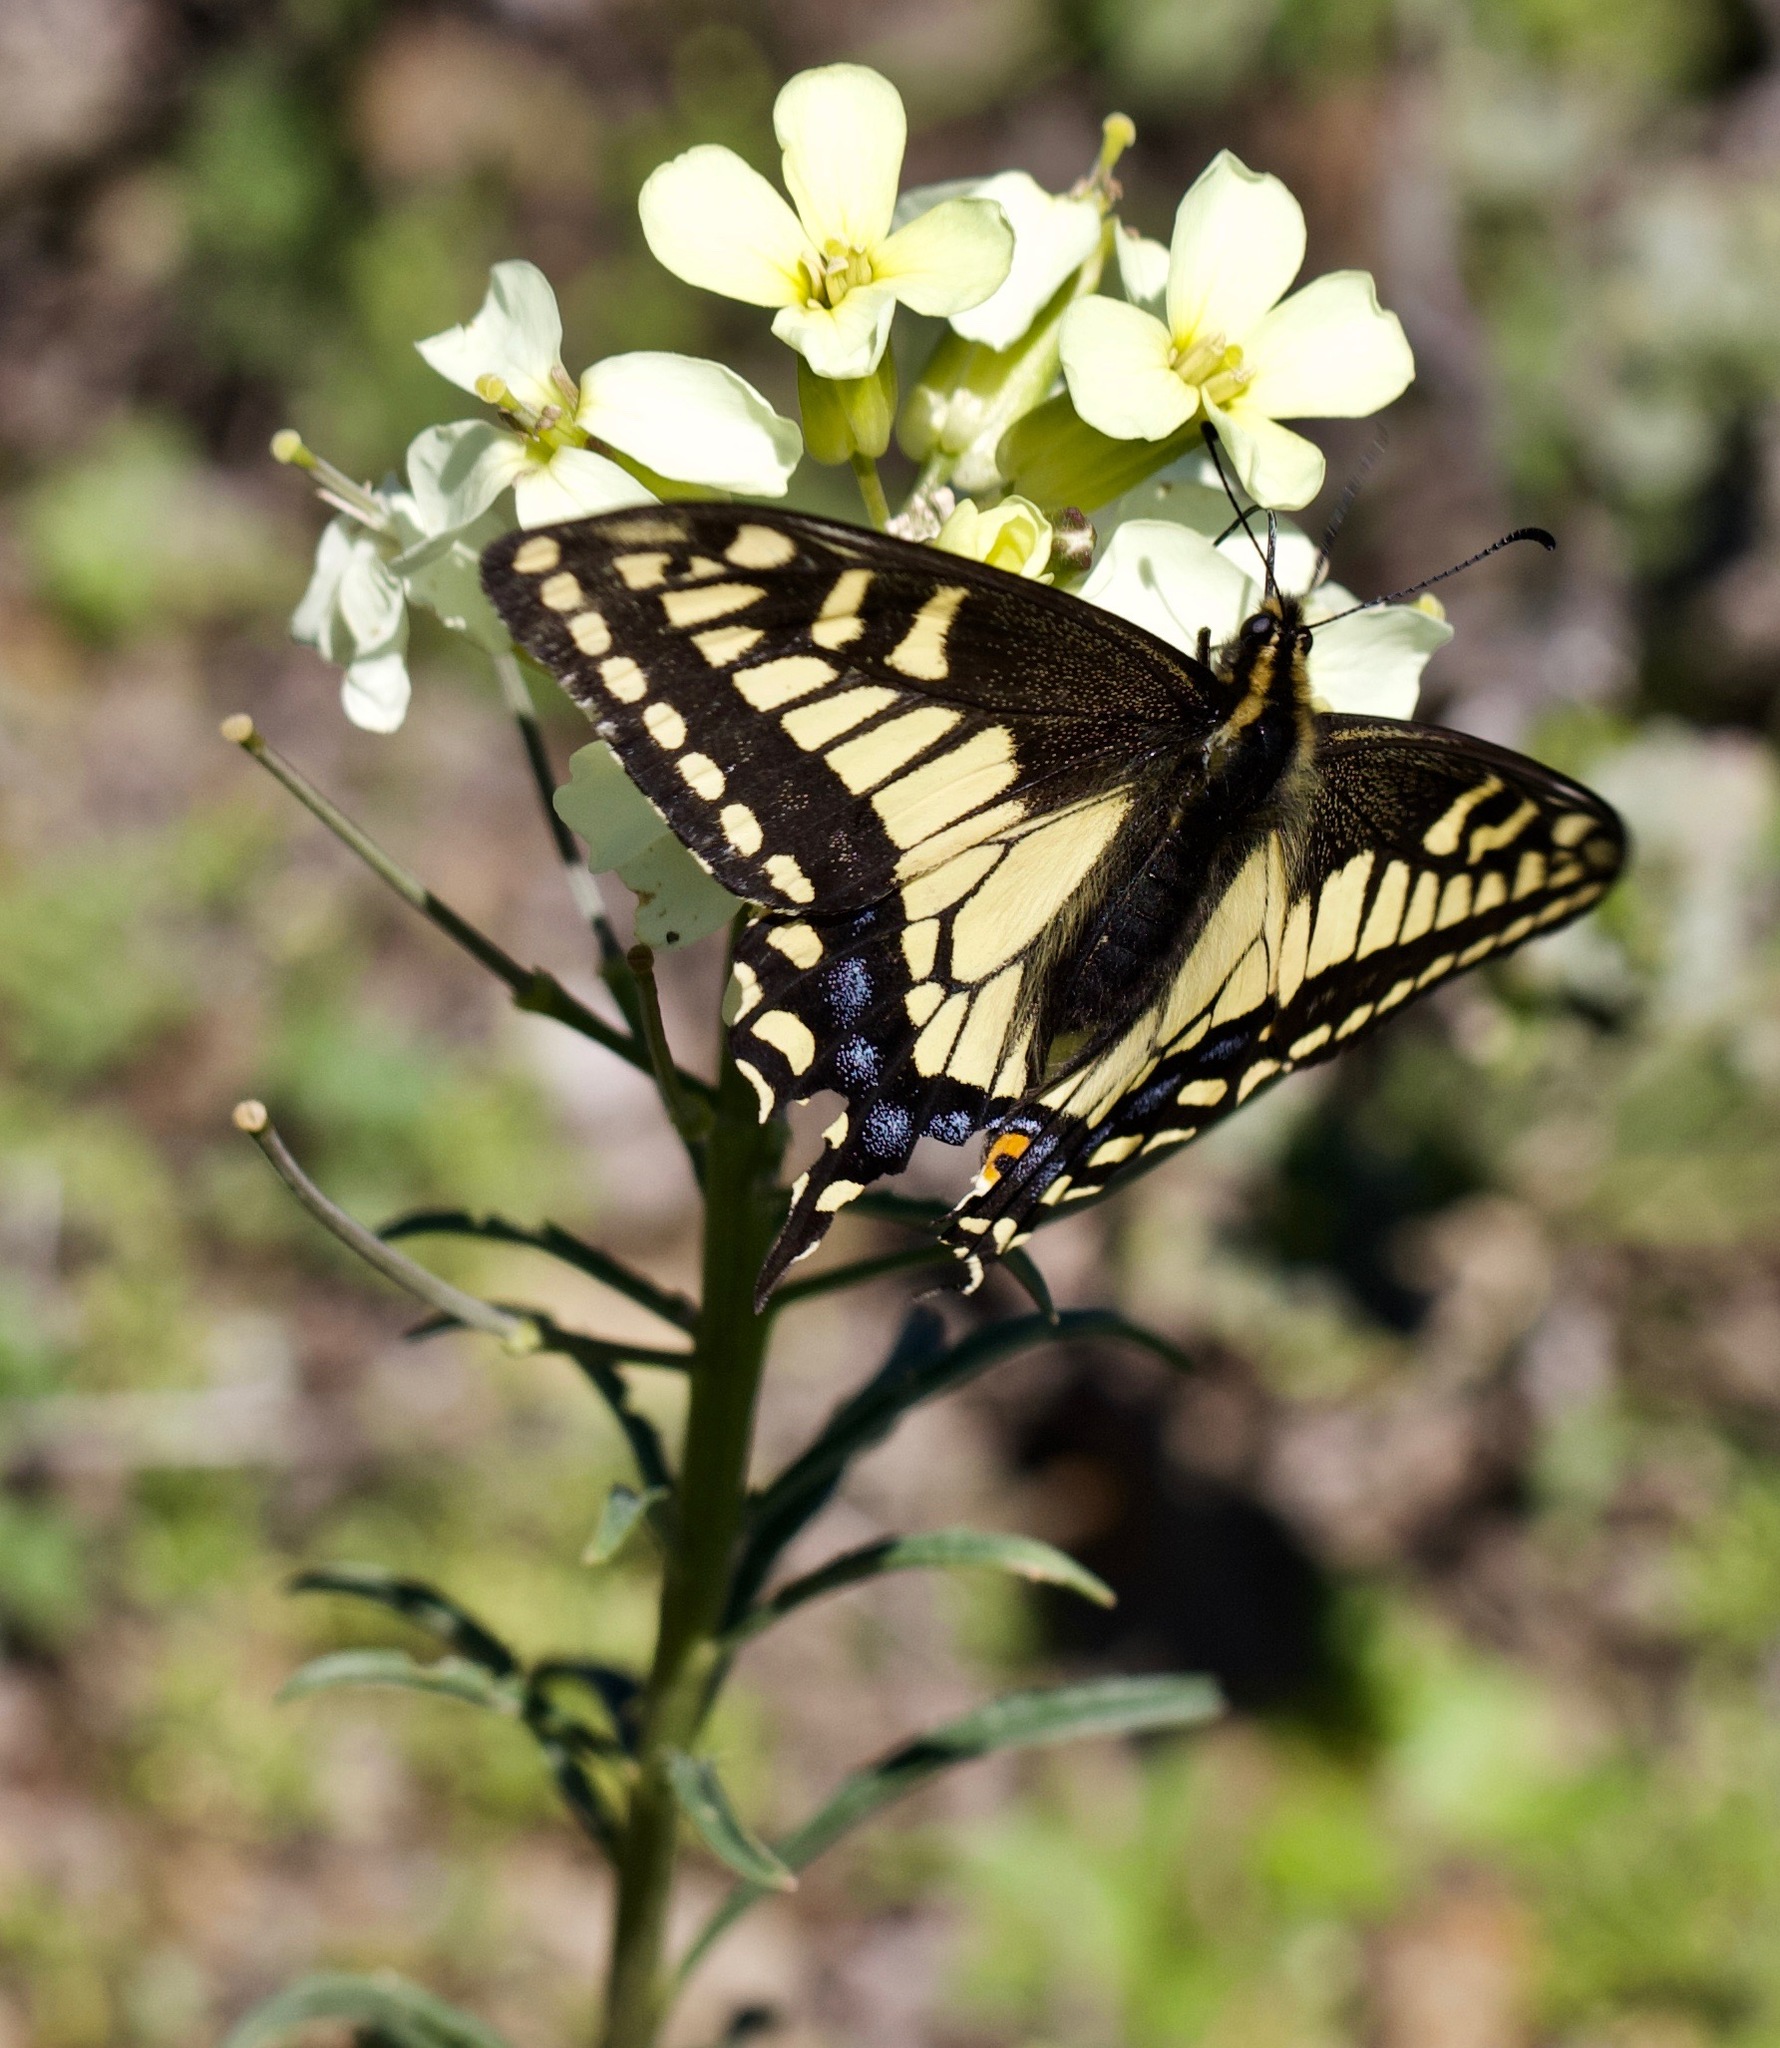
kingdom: Animalia
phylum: Arthropoda
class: Insecta
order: Lepidoptera
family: Papilionidae
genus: Papilio
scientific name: Papilio zelicaon
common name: Anise swallowtail
